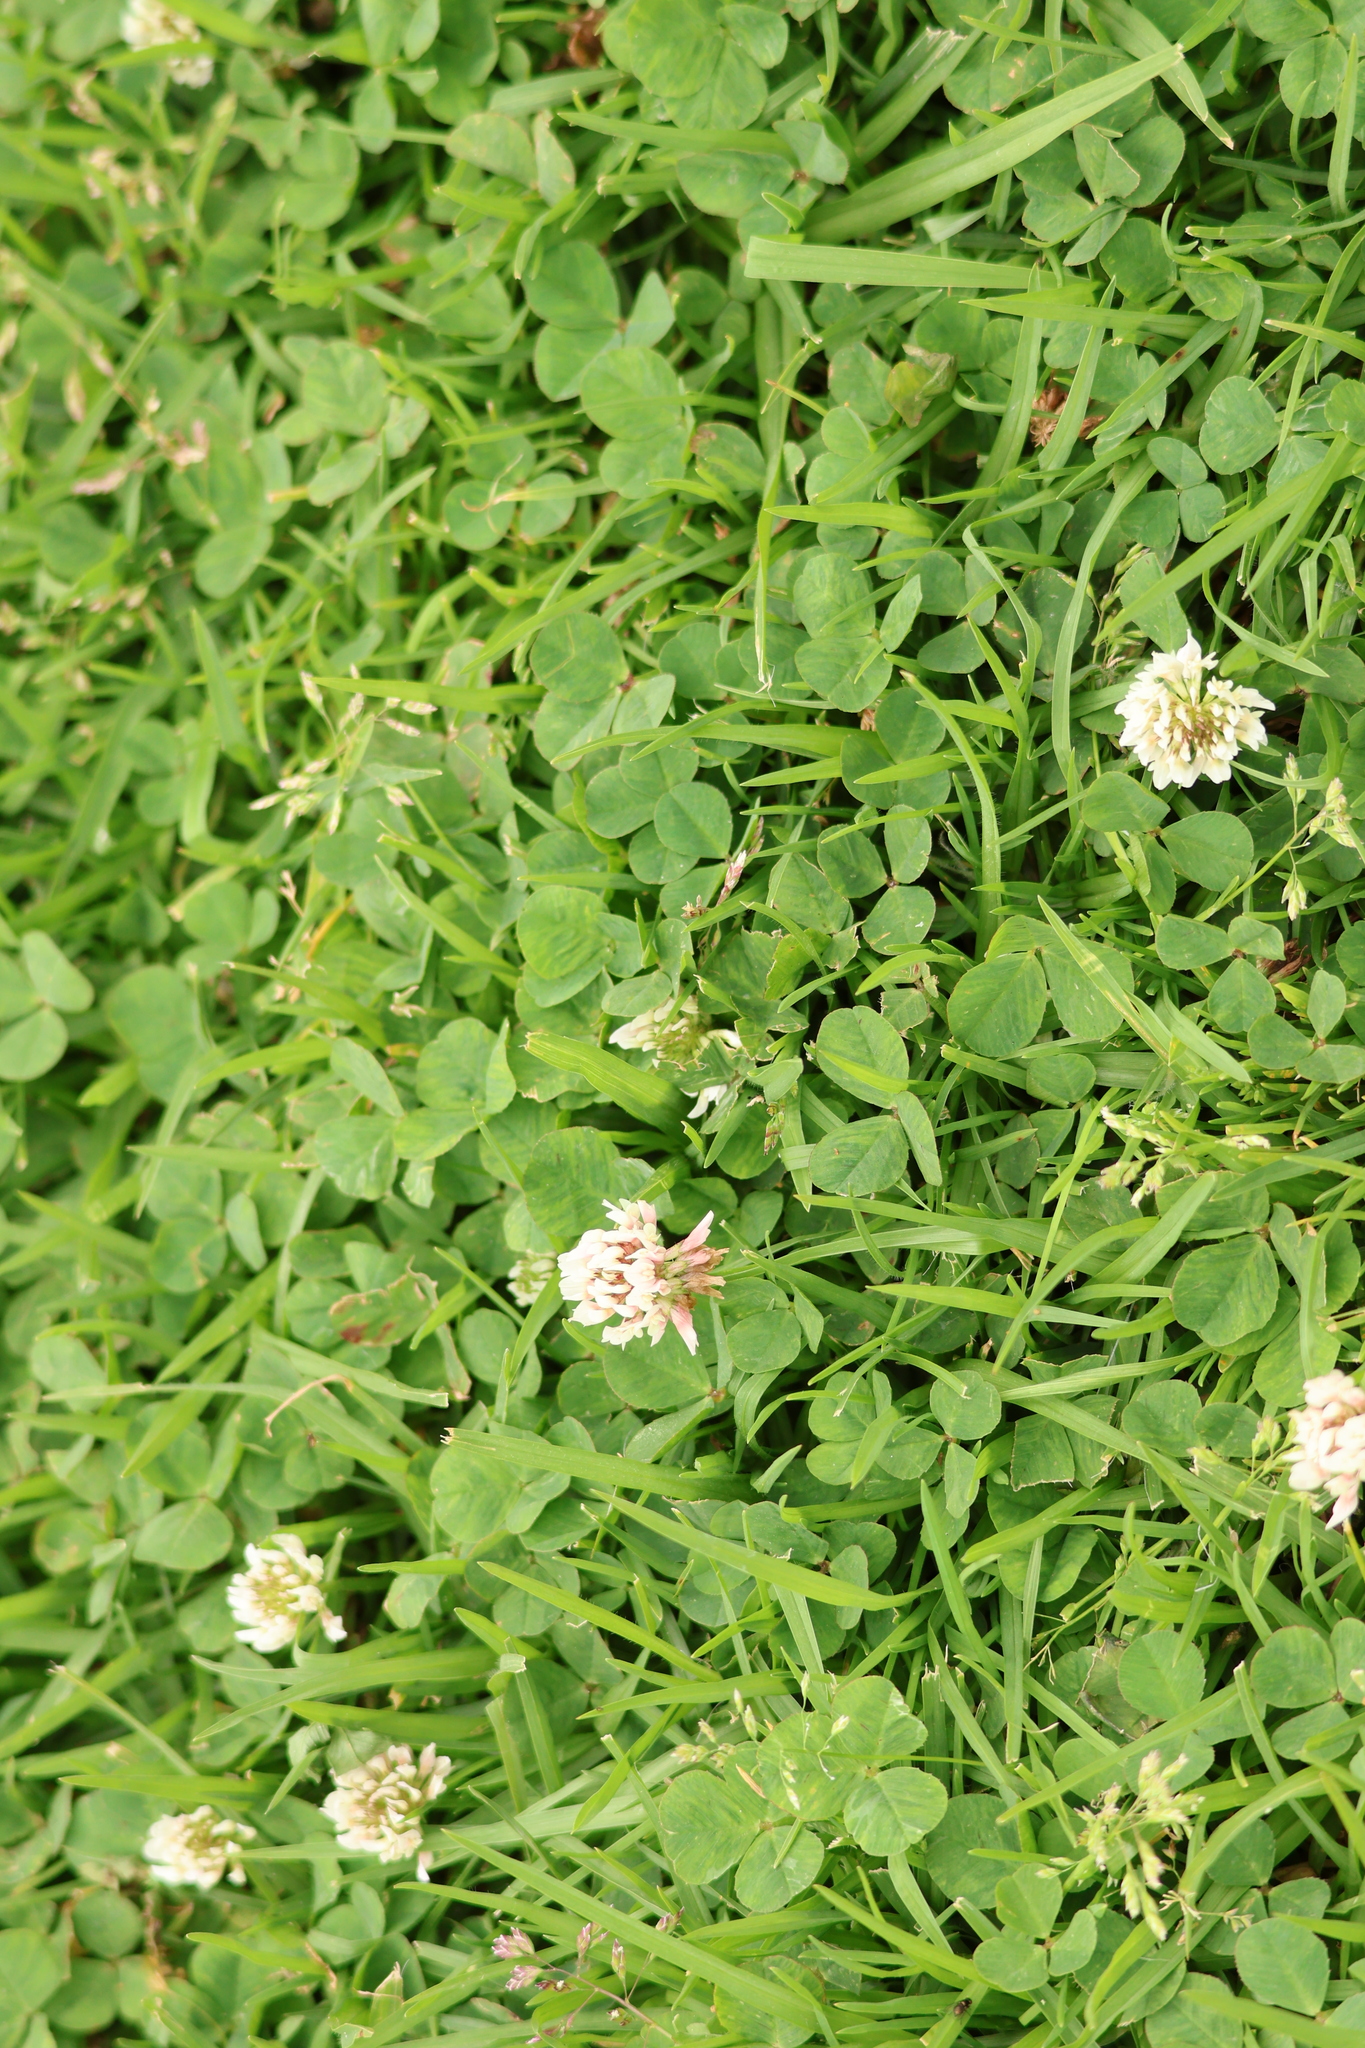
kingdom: Plantae
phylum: Tracheophyta
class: Magnoliopsida
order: Fabales
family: Fabaceae
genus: Trifolium
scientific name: Trifolium repens
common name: White clover
